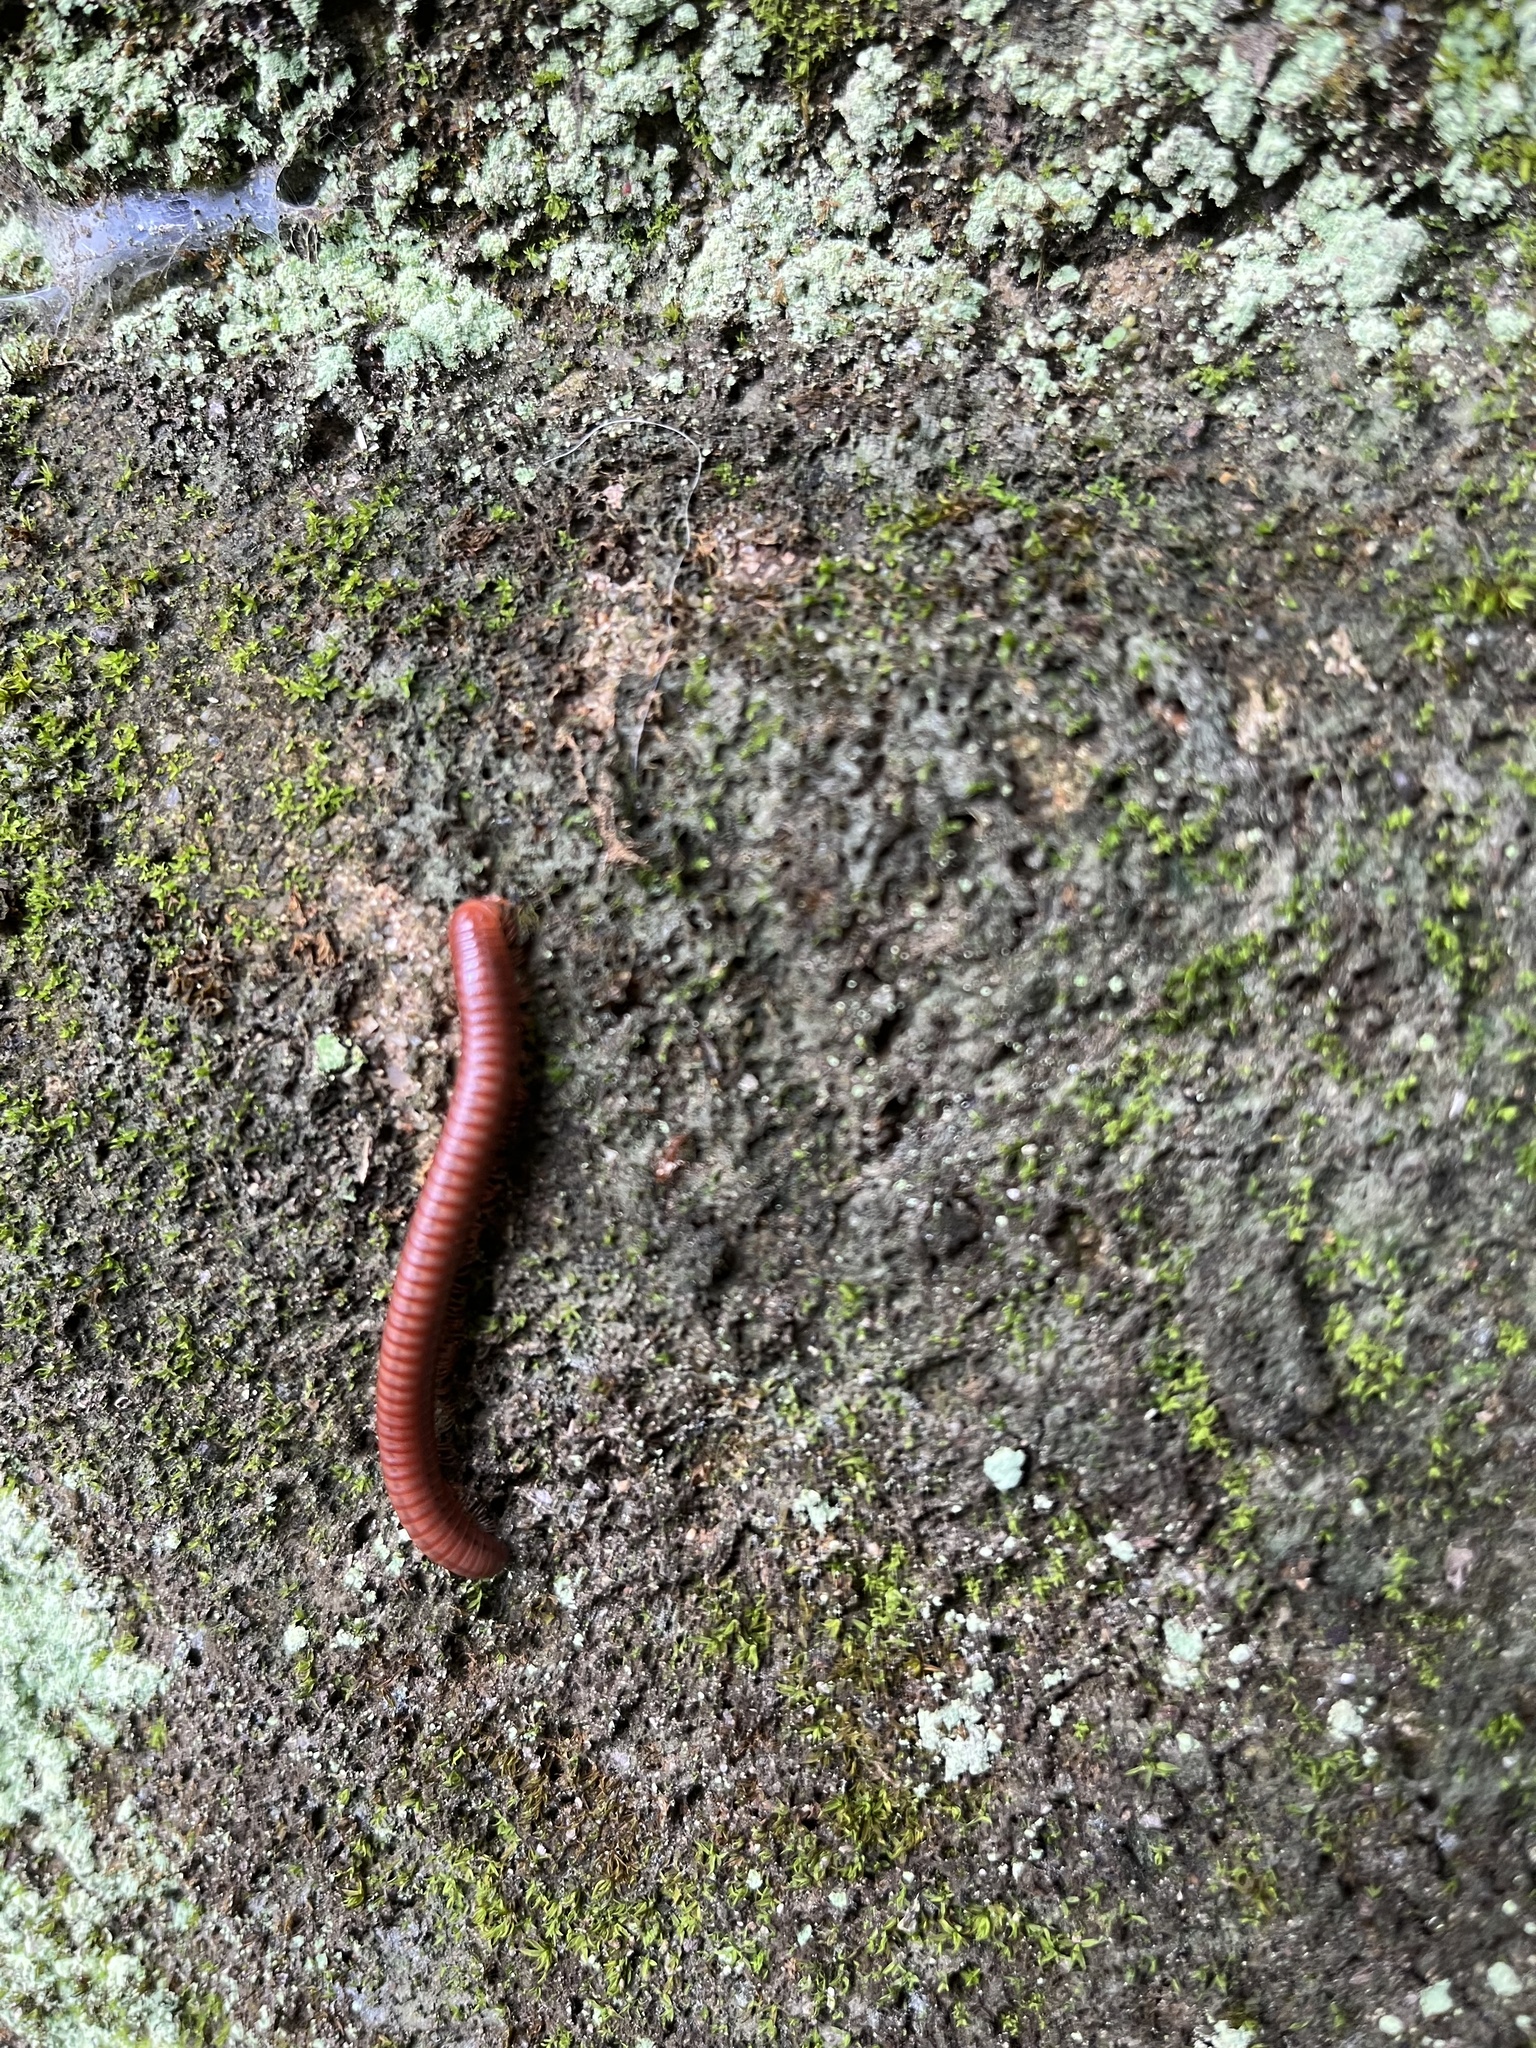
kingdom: Animalia
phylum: Arthropoda
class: Diplopoda
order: Spirobolida
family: Pachybolidae
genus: Trigoniulus
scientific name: Trigoniulus corallinus
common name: Millipede
